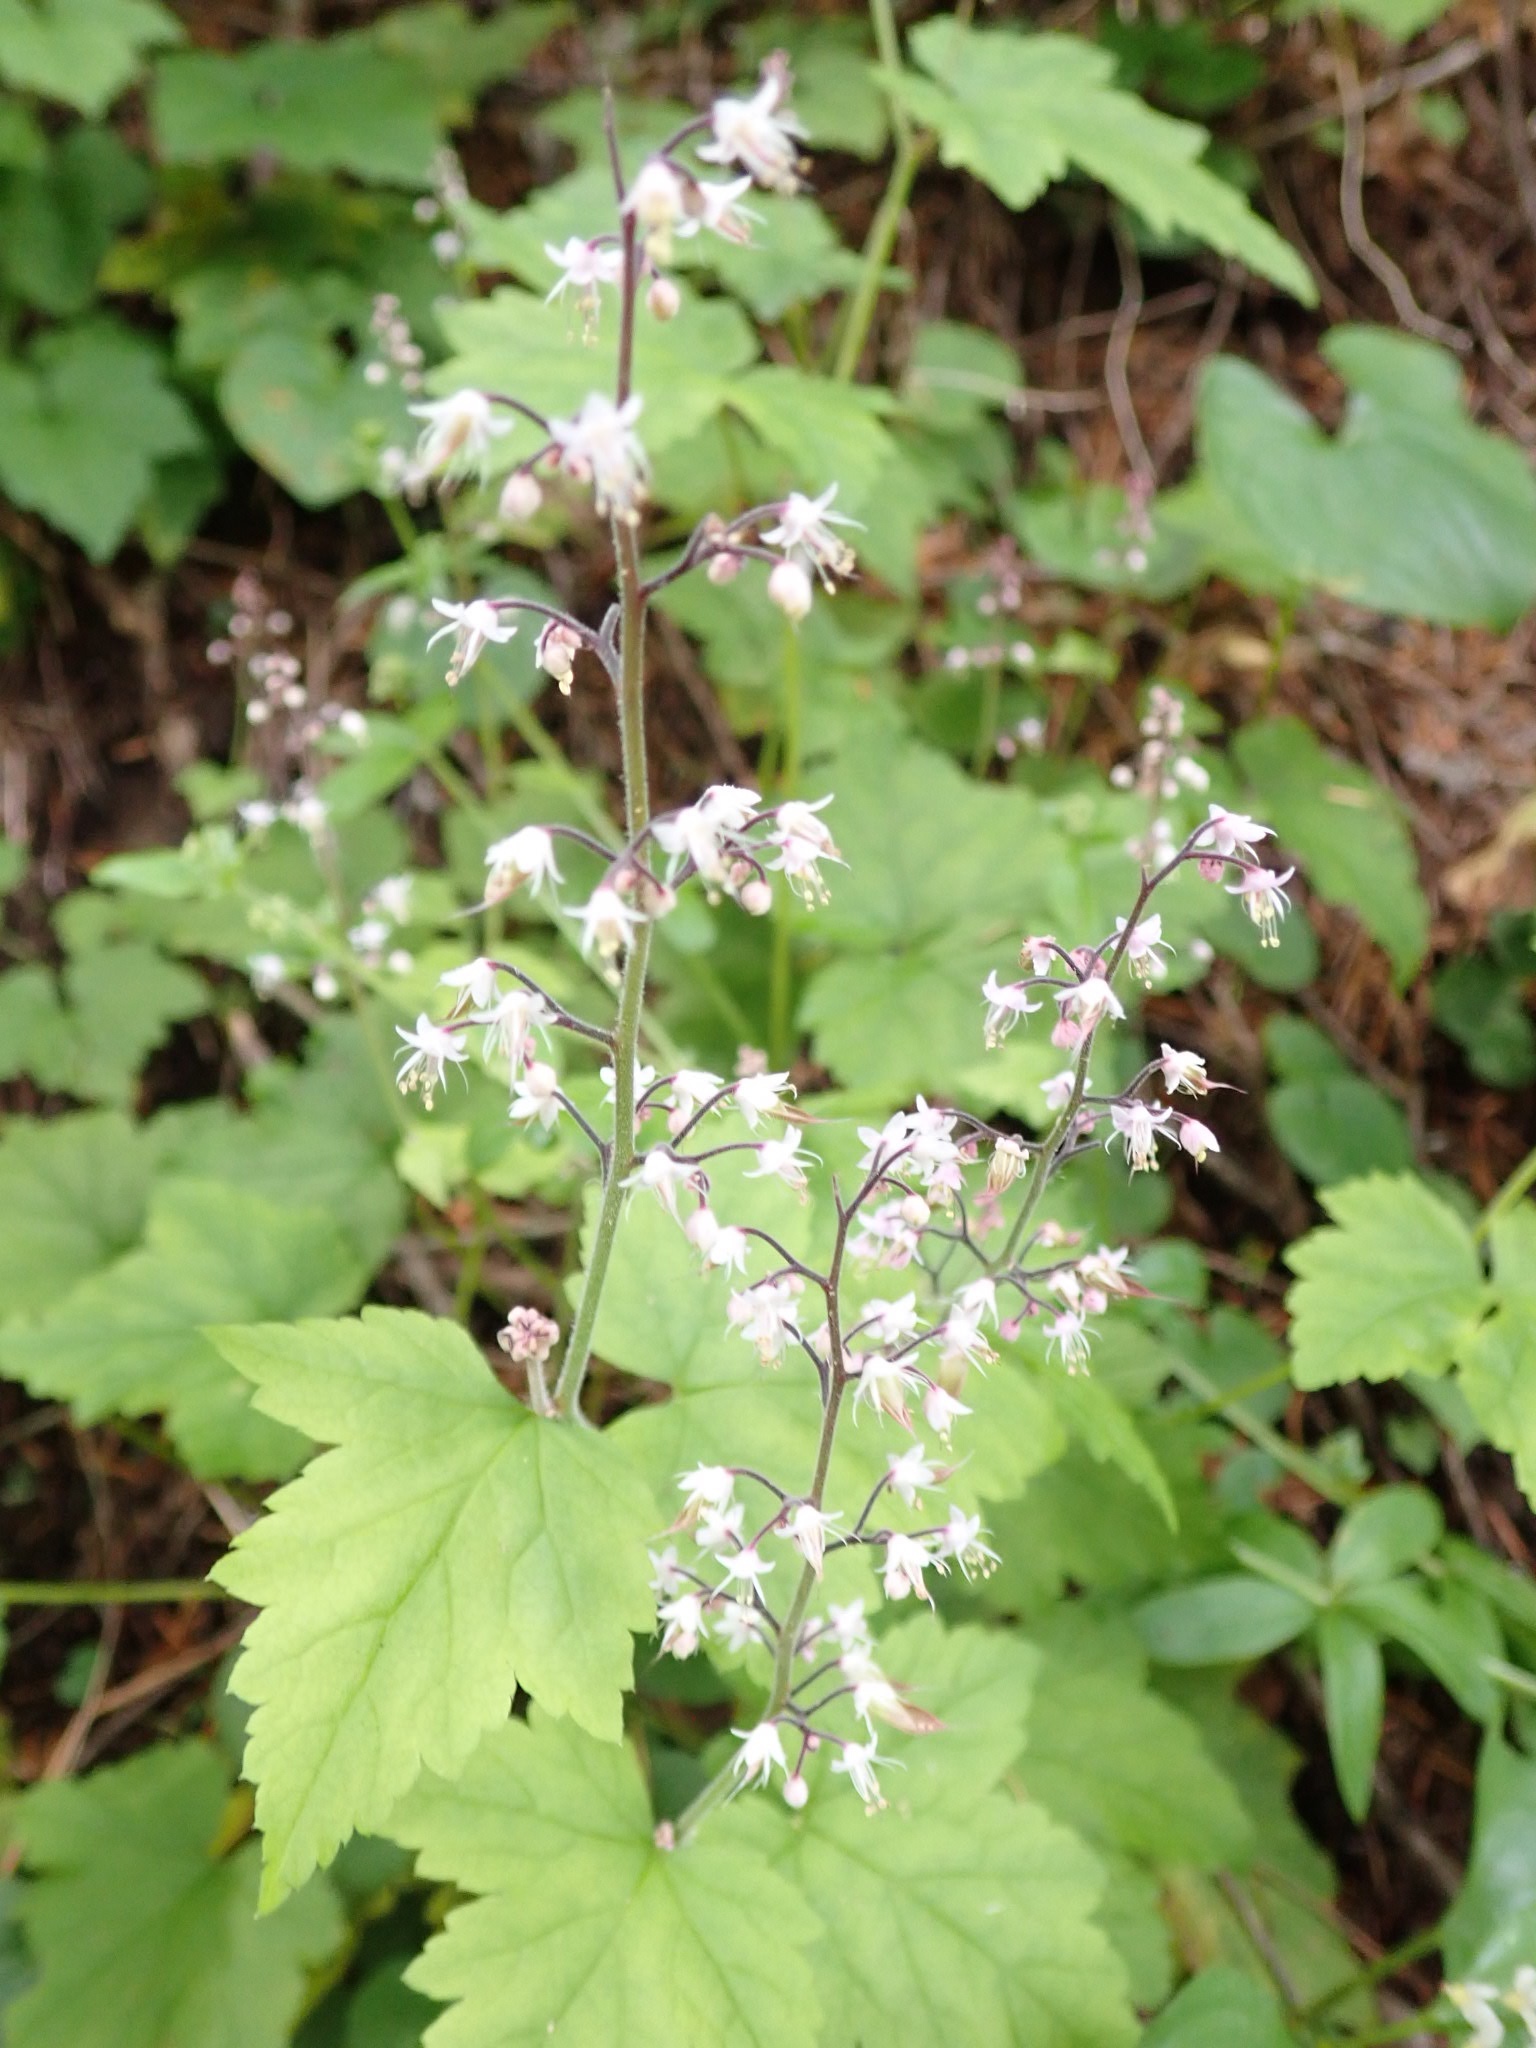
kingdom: Plantae
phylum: Tracheophyta
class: Magnoliopsida
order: Saxifragales
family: Saxifragaceae
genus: Tiarella
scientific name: Tiarella trifoliata
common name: Sugar-scoop
